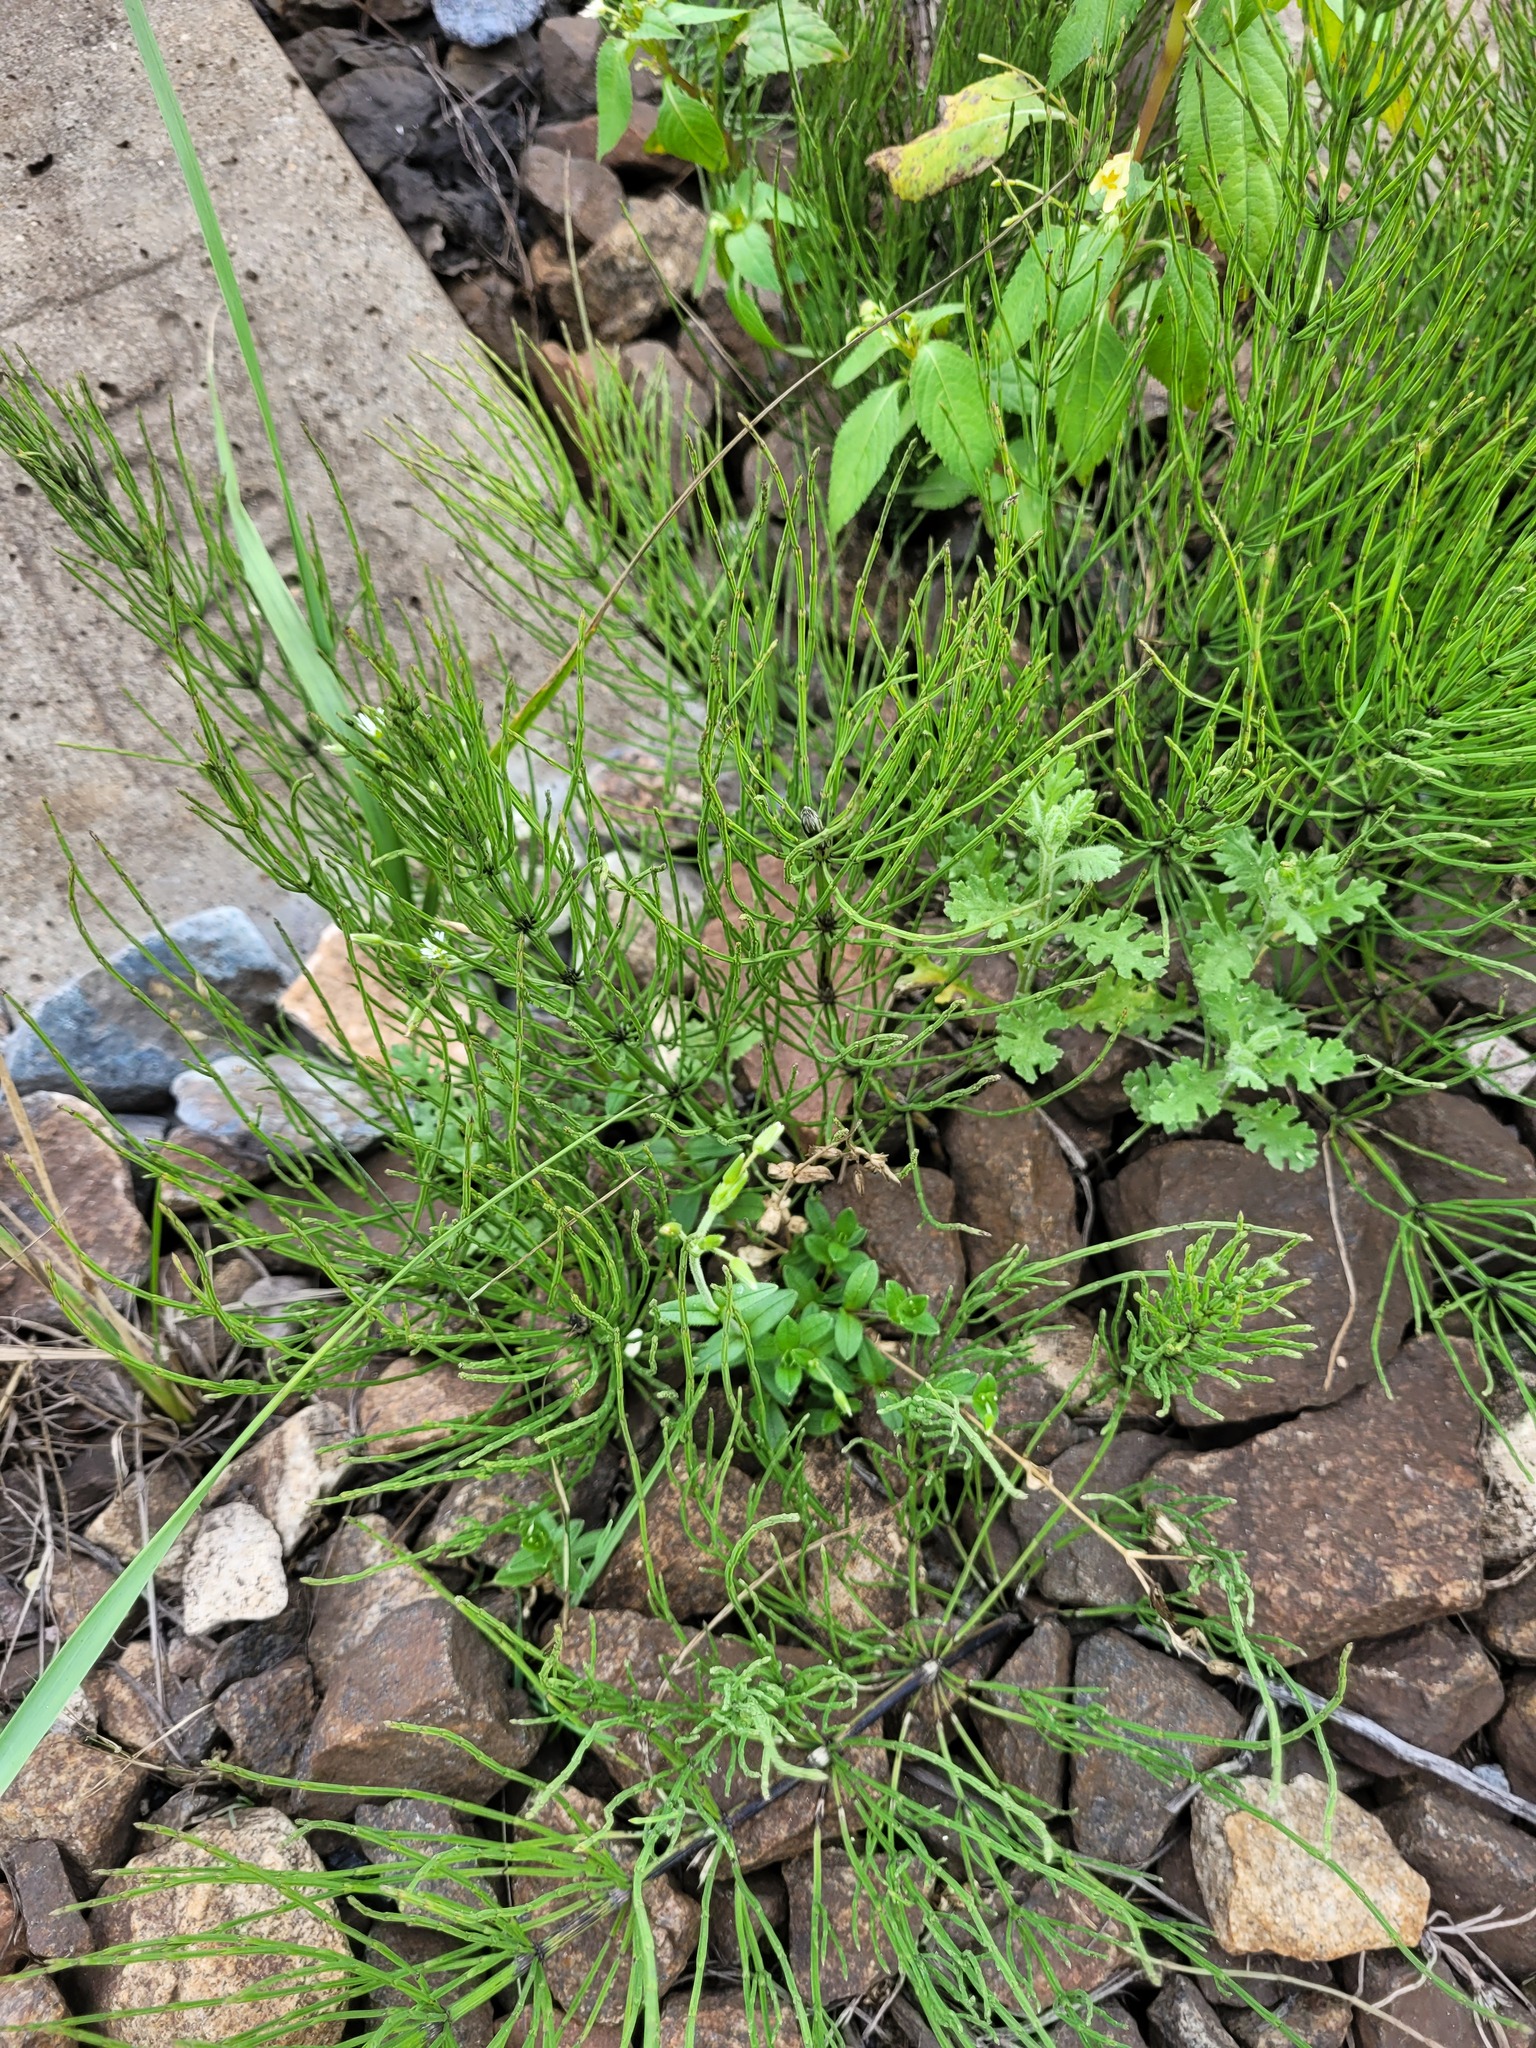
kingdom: Plantae
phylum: Tracheophyta
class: Polypodiopsida
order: Equisetales
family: Equisetaceae
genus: Equisetum
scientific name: Equisetum palustre
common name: Marsh horsetail
